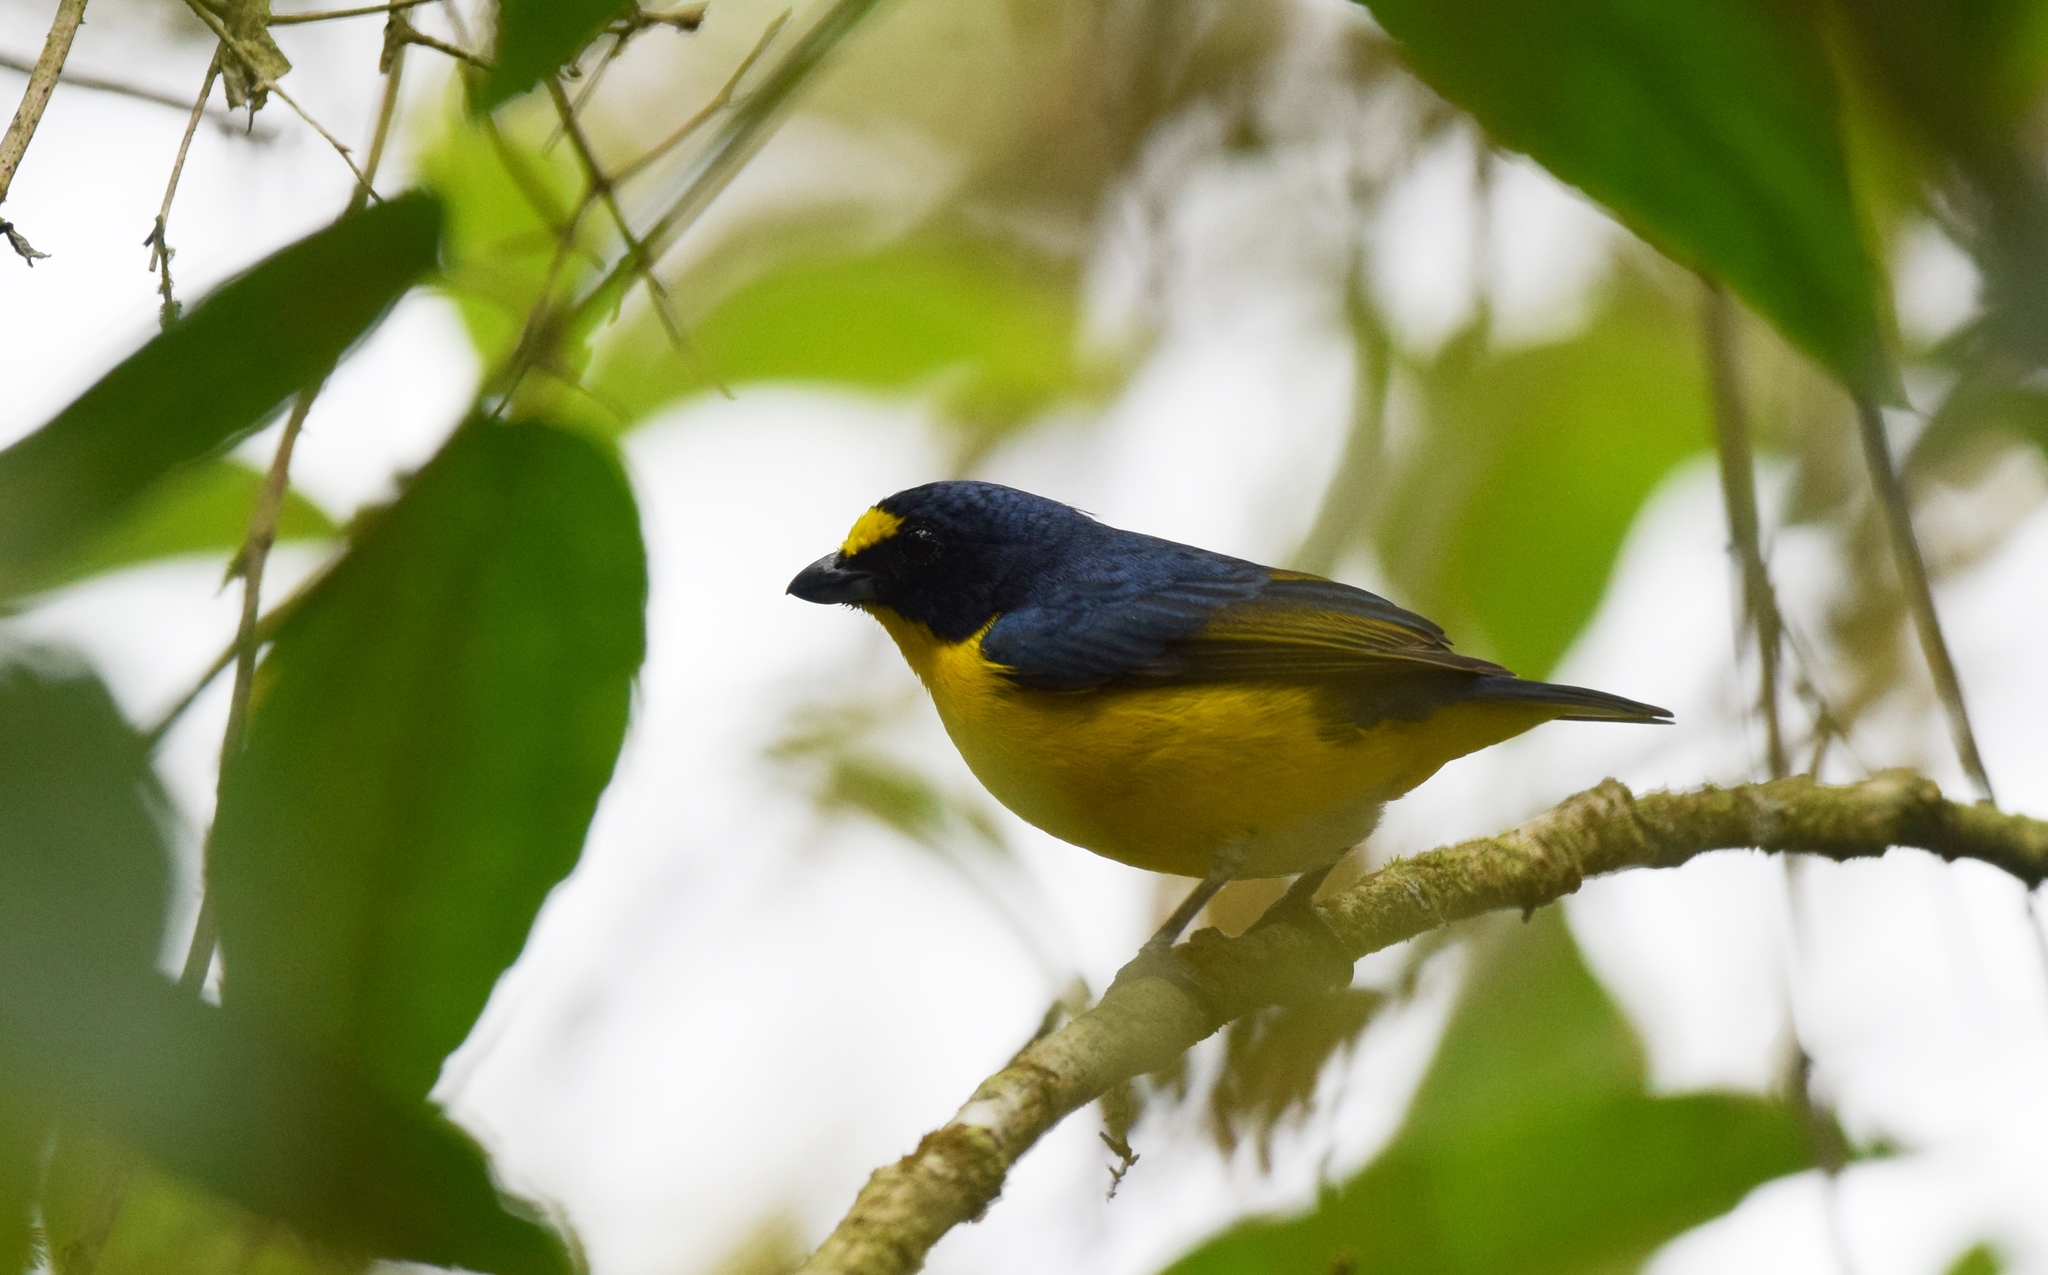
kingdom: Animalia
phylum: Chordata
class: Aves
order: Passeriformes
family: Fringillidae
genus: Euphonia
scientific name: Euphonia hirundinacea
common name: Yellow-throated euphonia
